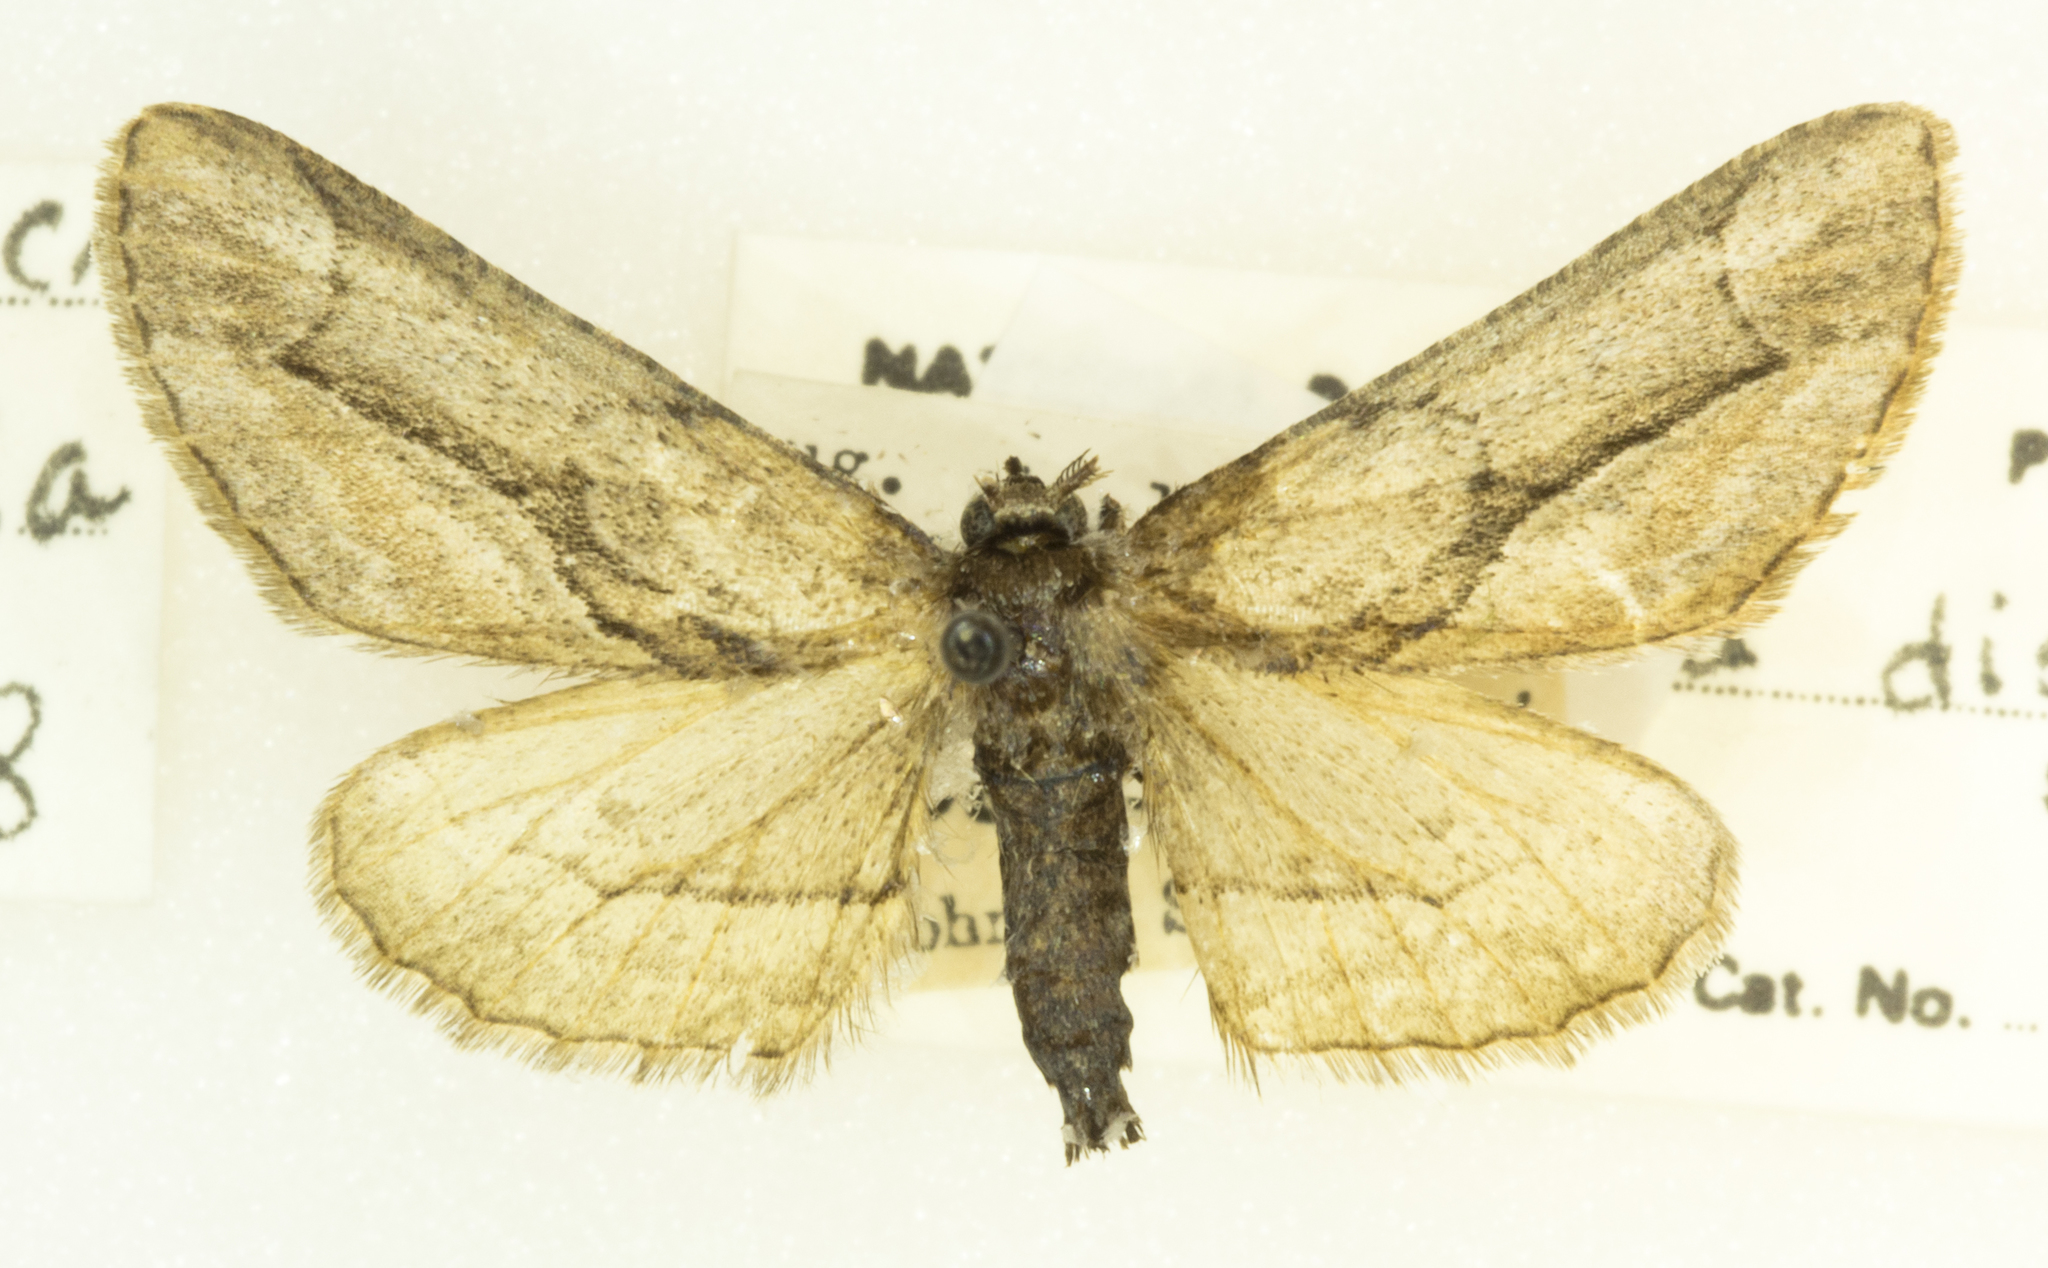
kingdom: Animalia
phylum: Arthropoda
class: Insecta
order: Lepidoptera
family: Geometridae
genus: Holochroa
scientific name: Holochroa dissociarius
